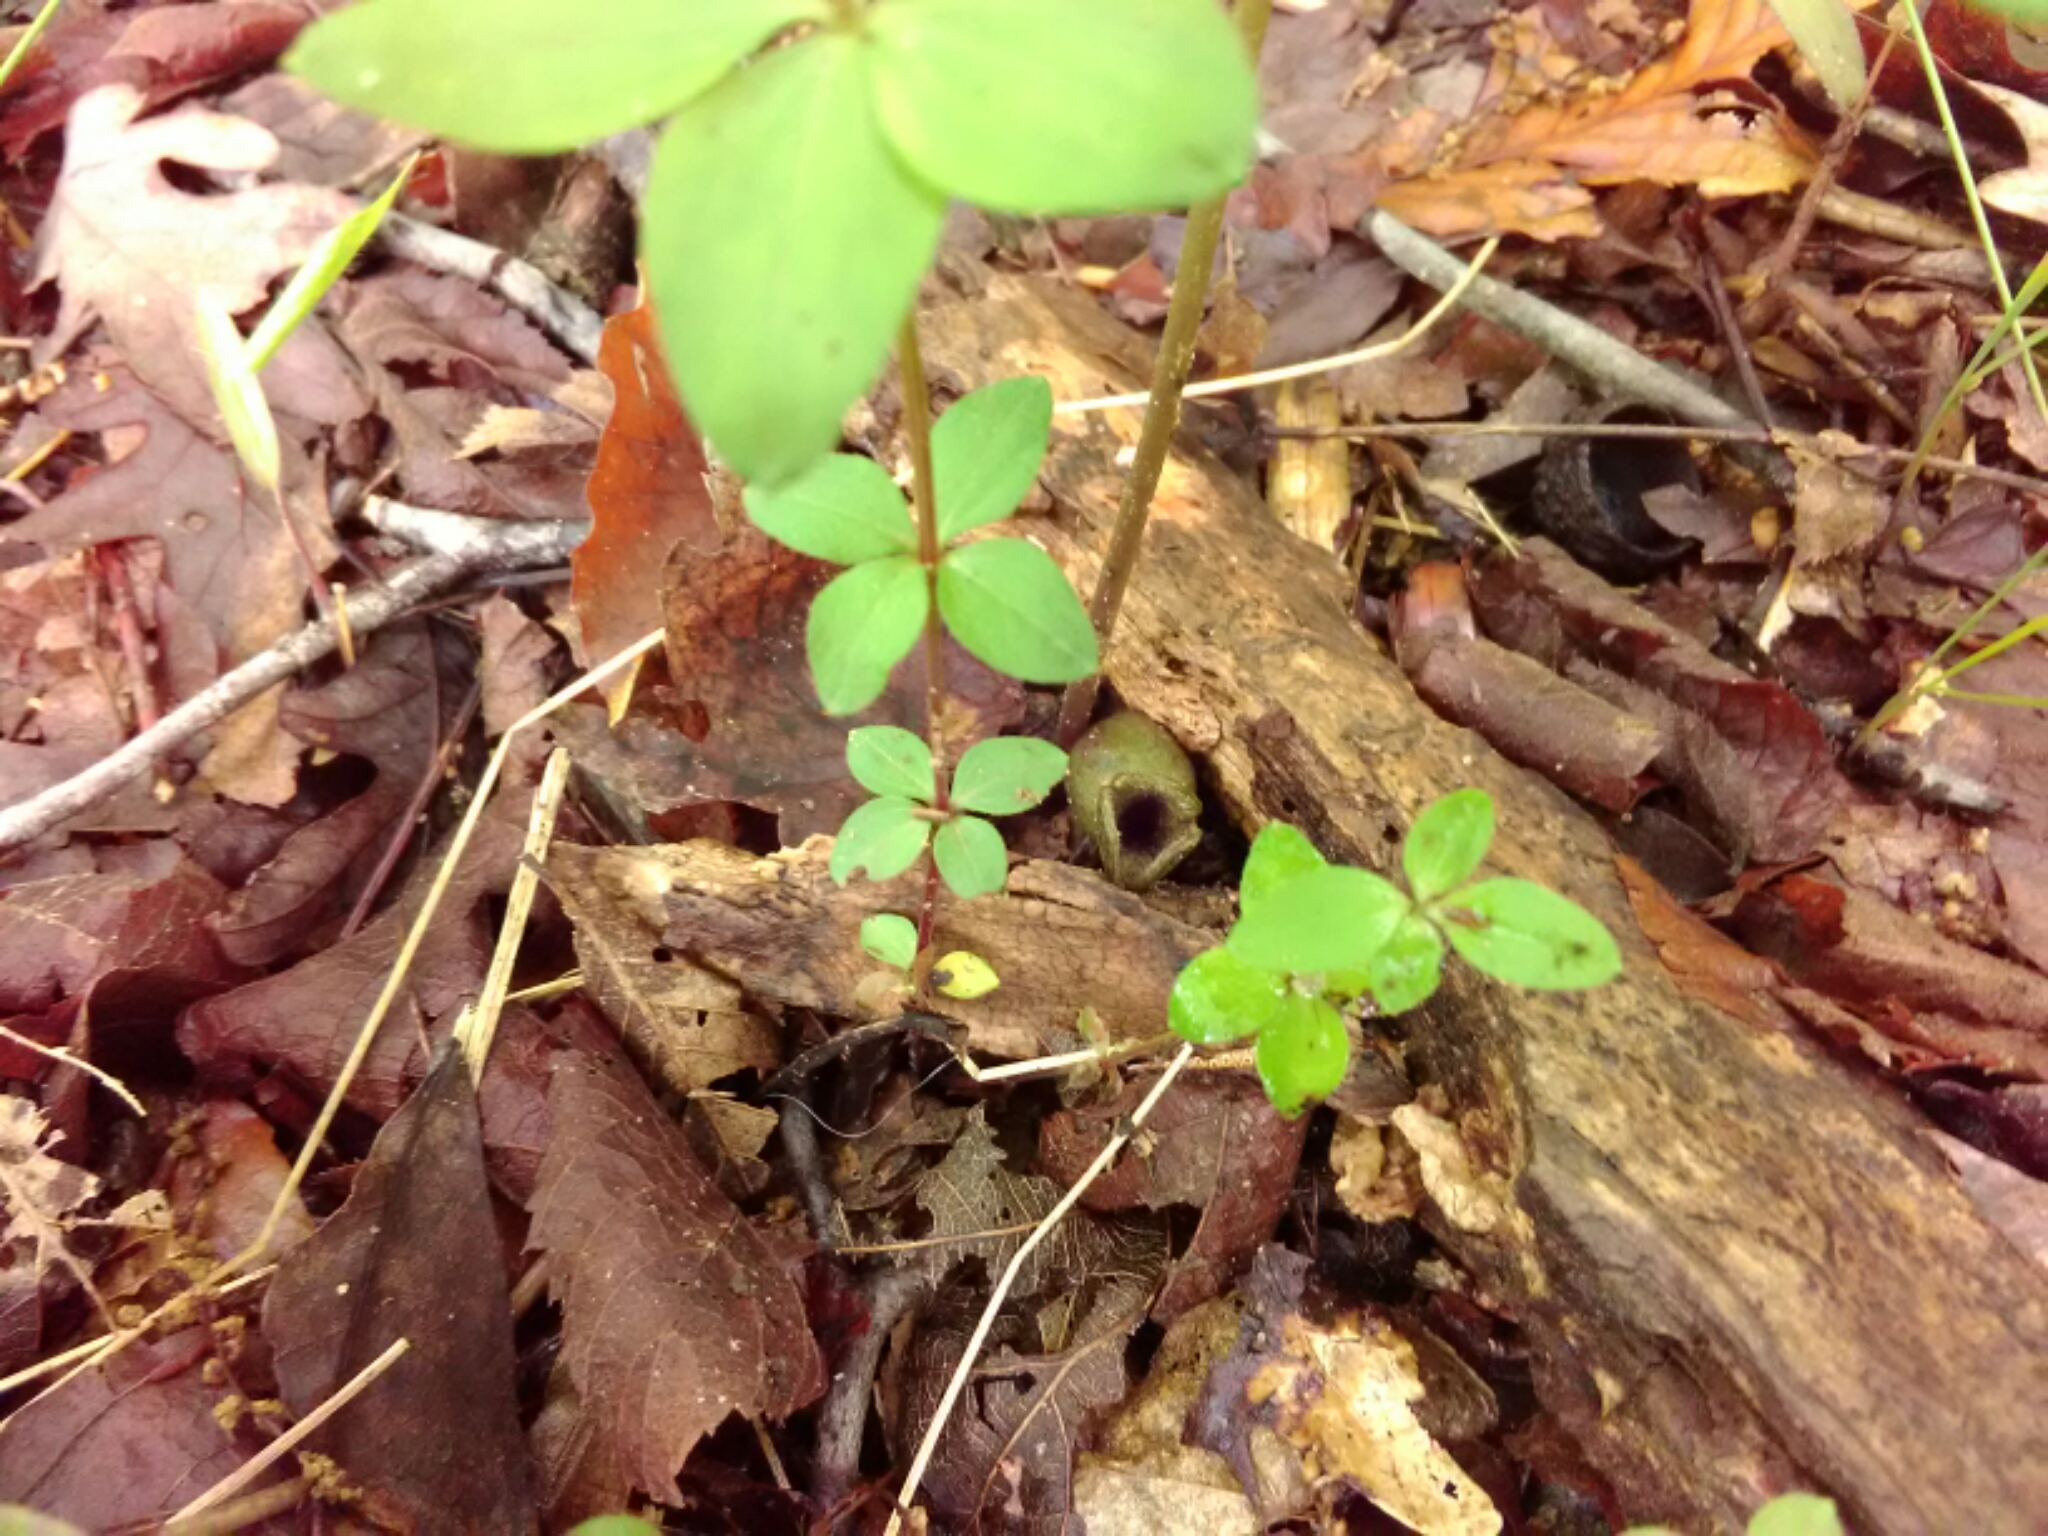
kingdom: Plantae
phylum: Tracheophyta
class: Magnoliopsida
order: Piperales
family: Aristolochiaceae
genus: Hexastylis
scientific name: Hexastylis arifolia
